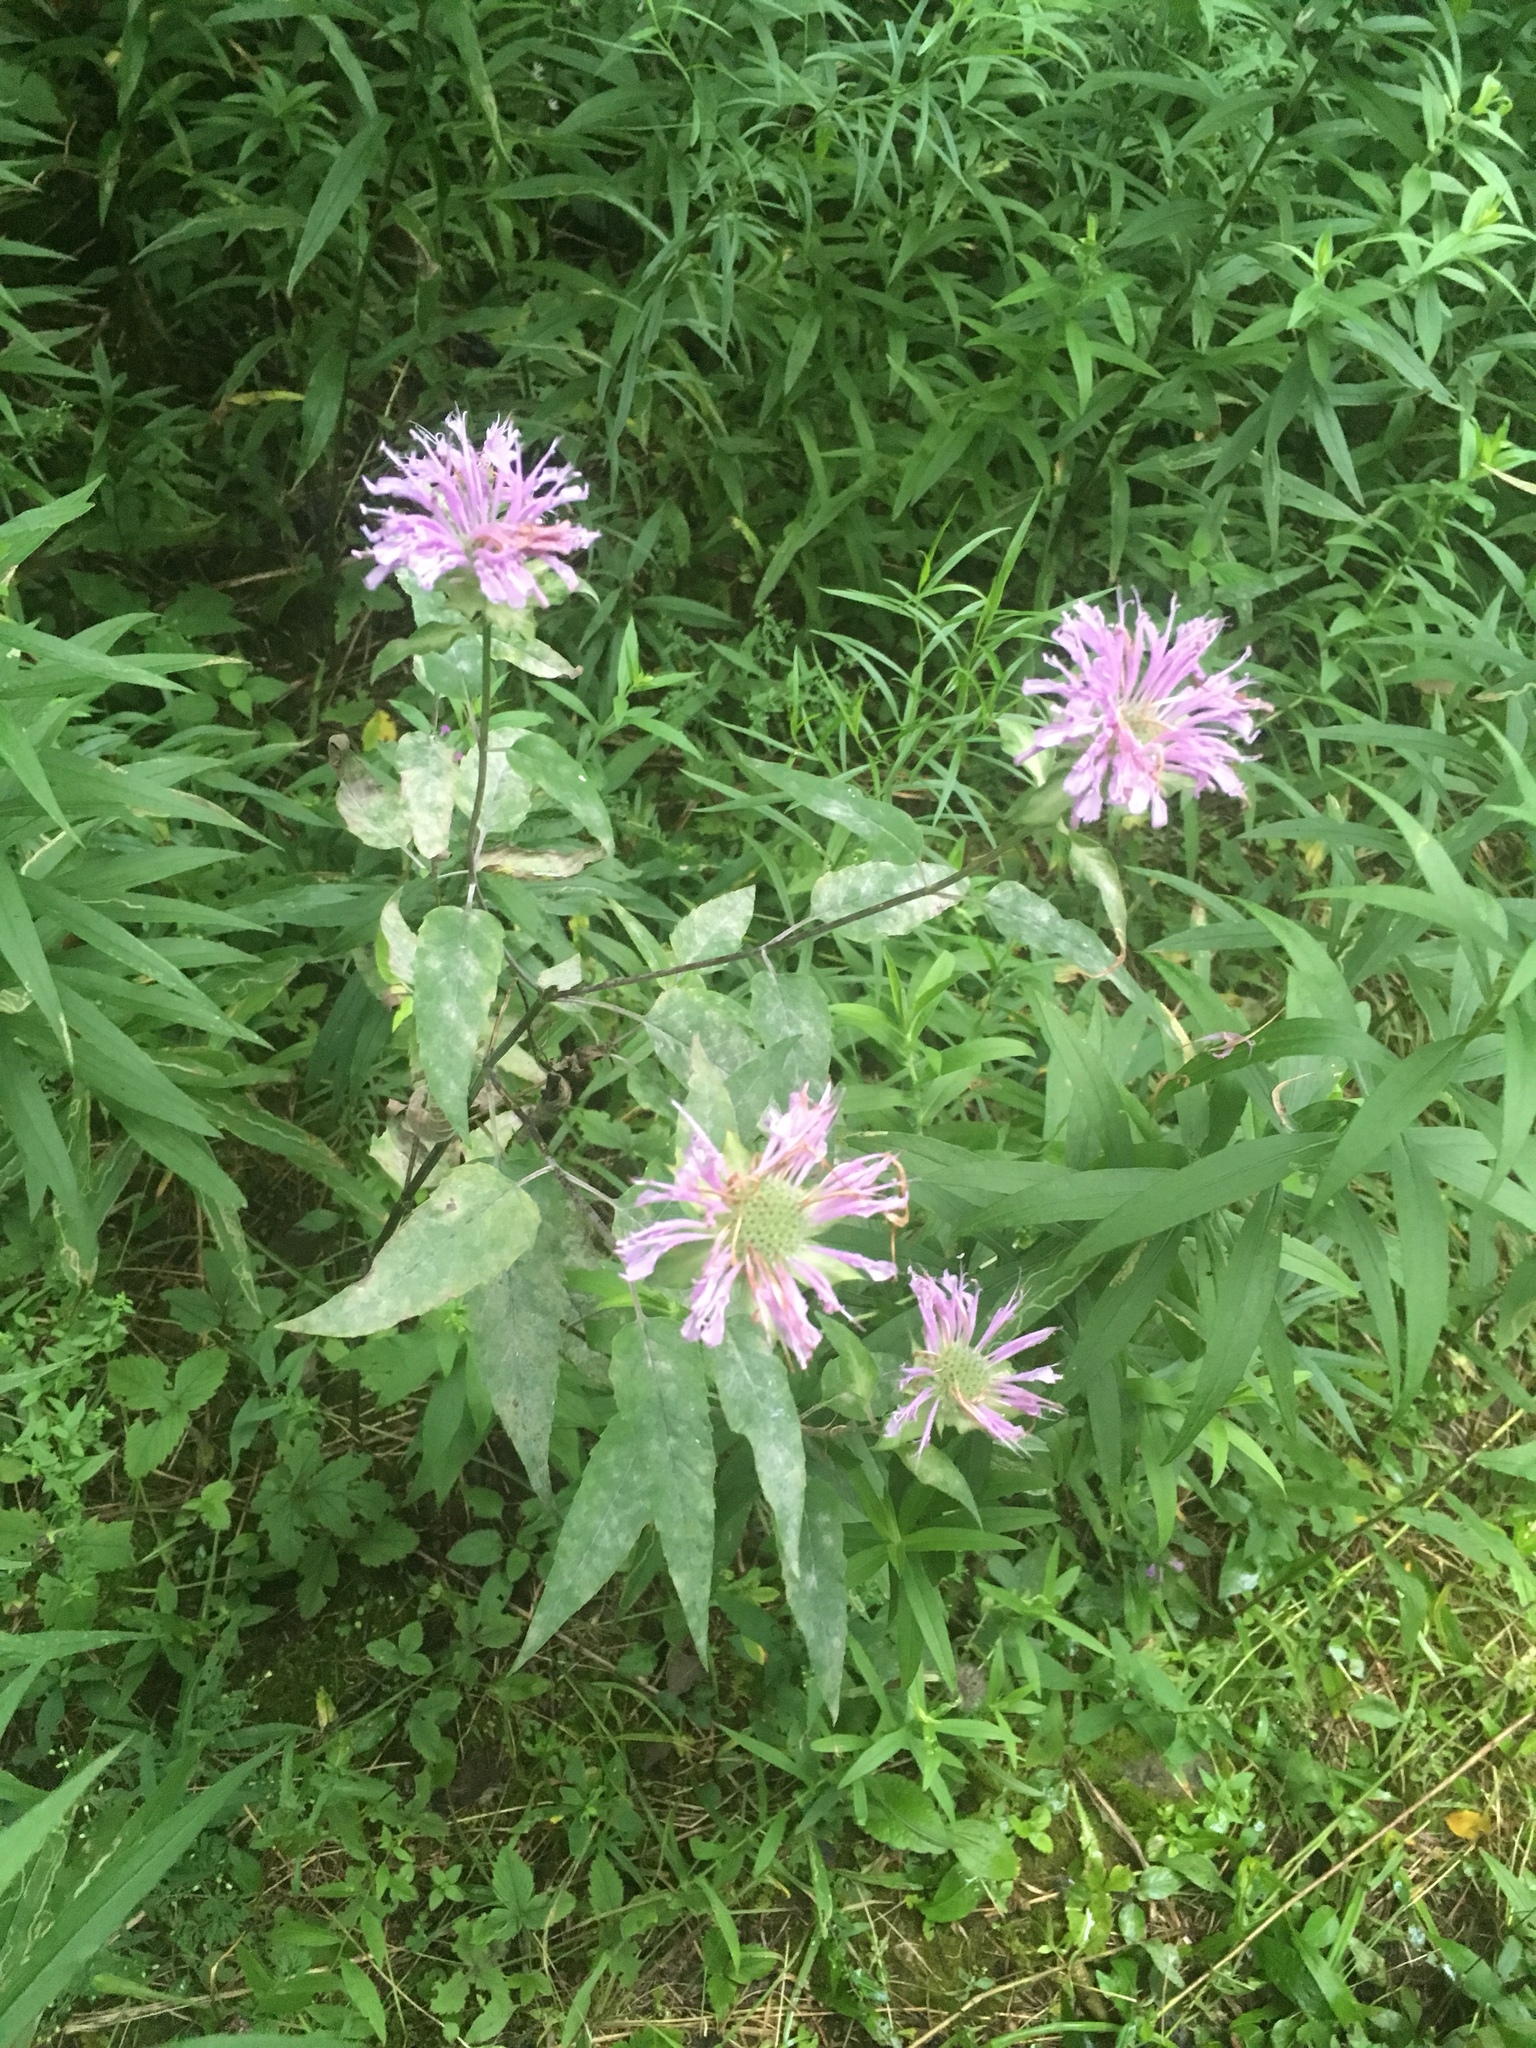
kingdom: Plantae
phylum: Tracheophyta
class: Magnoliopsida
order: Lamiales
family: Lamiaceae
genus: Monarda
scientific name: Monarda fistulosa
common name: Purple beebalm
